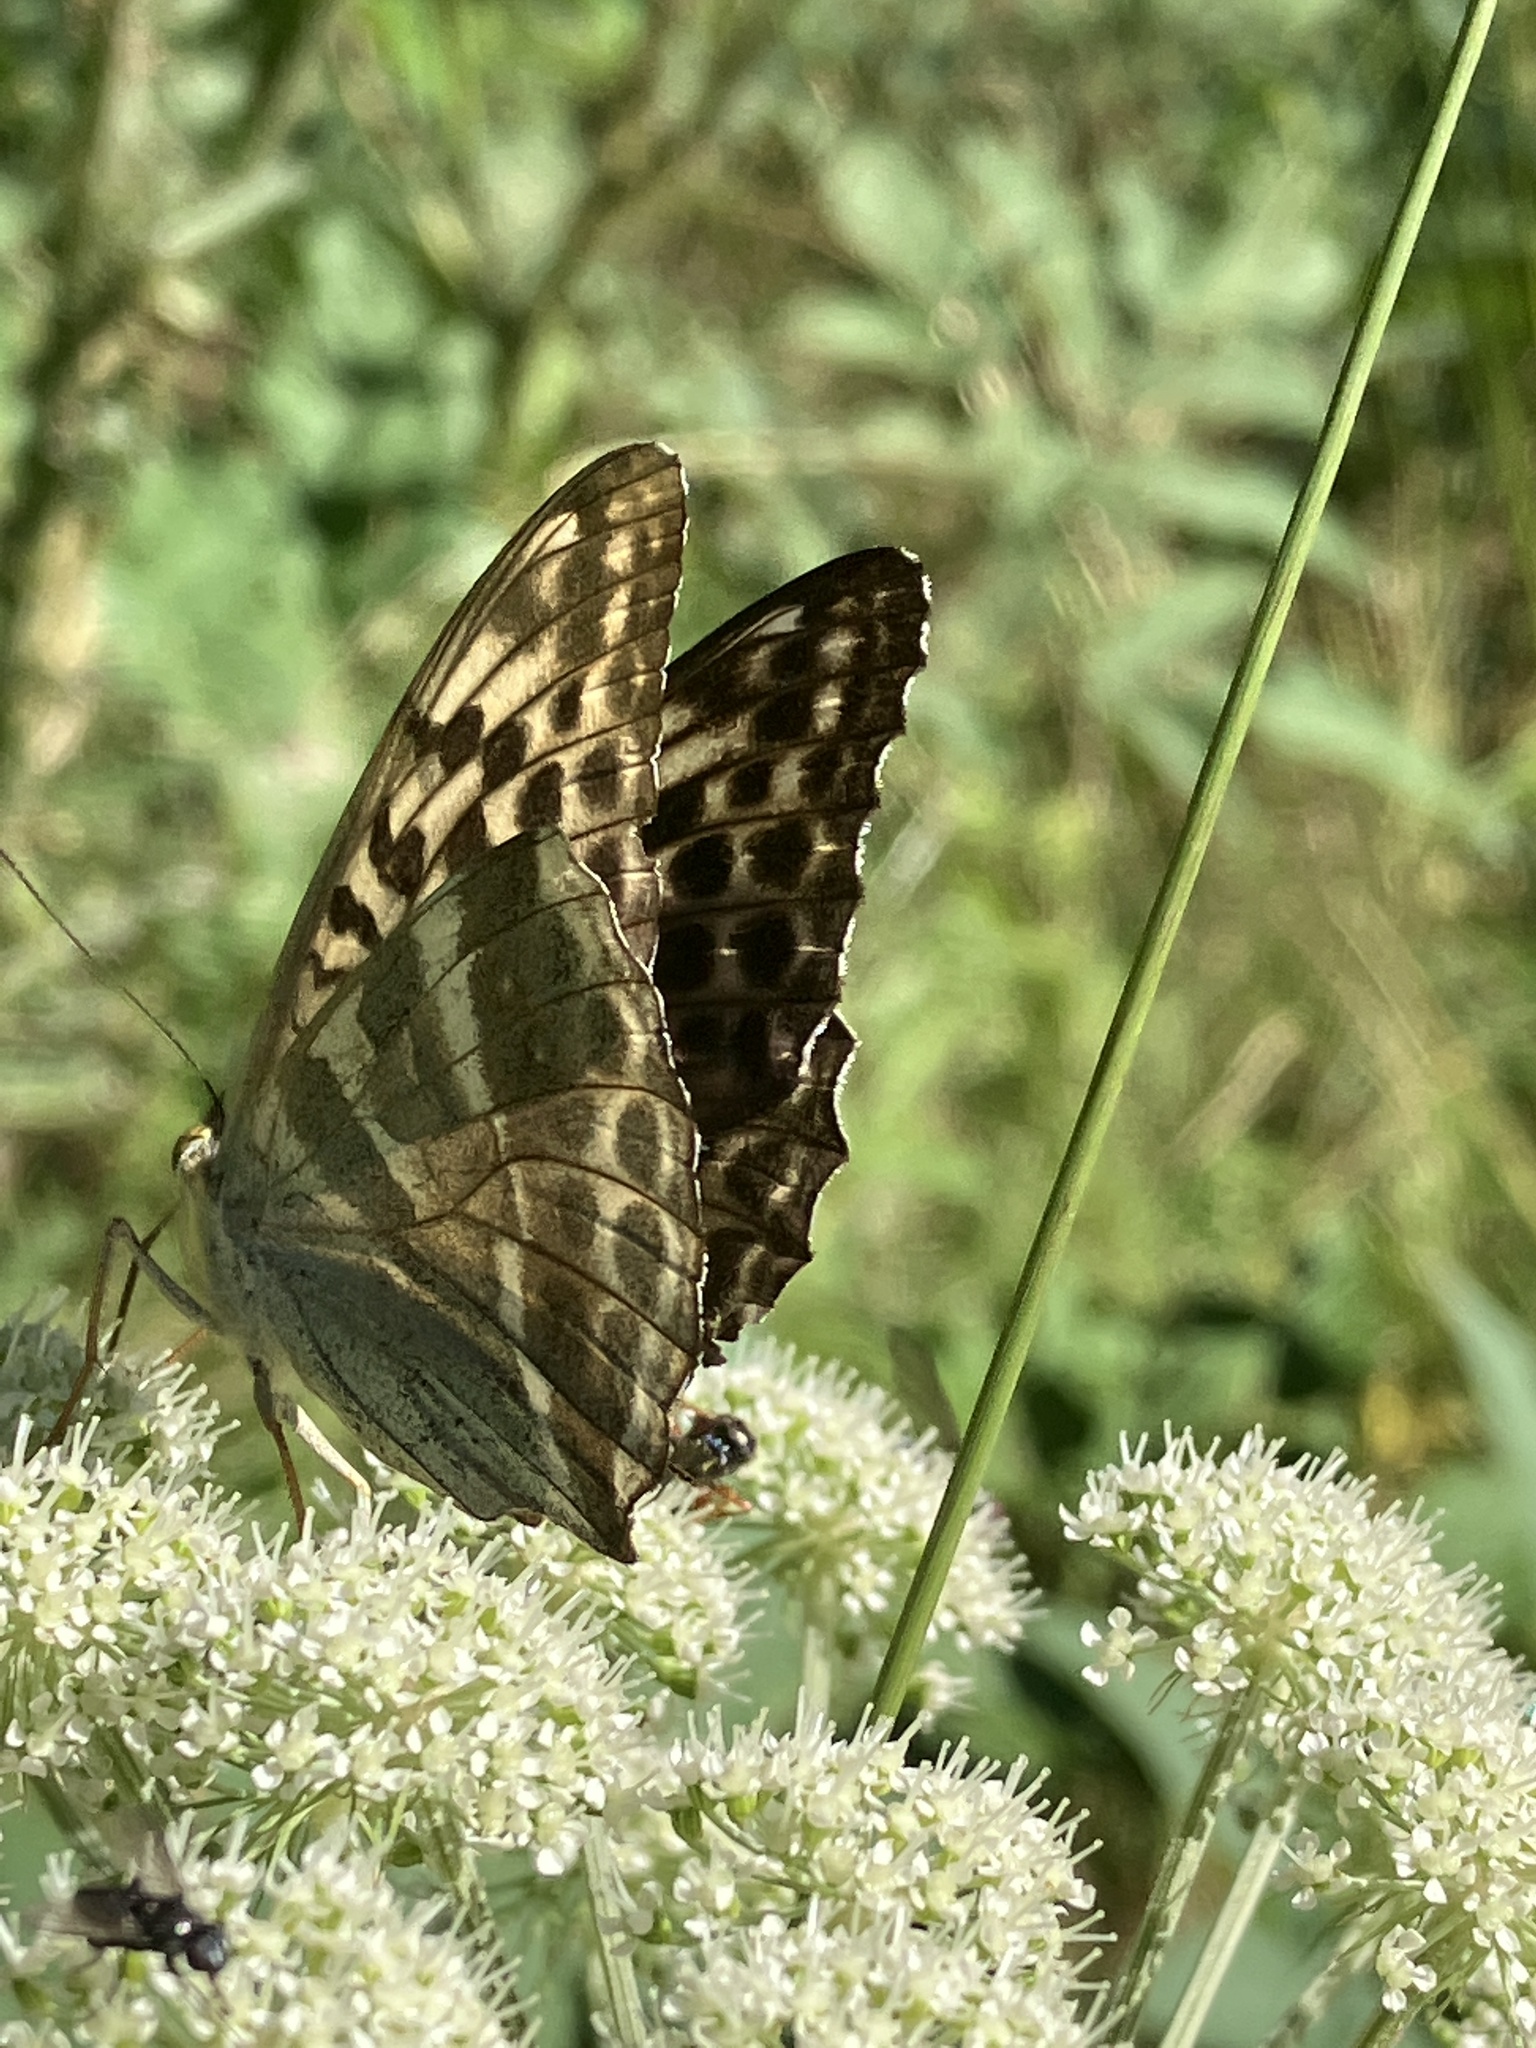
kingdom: Animalia
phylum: Arthropoda
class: Insecta
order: Lepidoptera
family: Nymphalidae
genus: Argynnis
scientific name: Argynnis paphia
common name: Silver-washed fritillary
